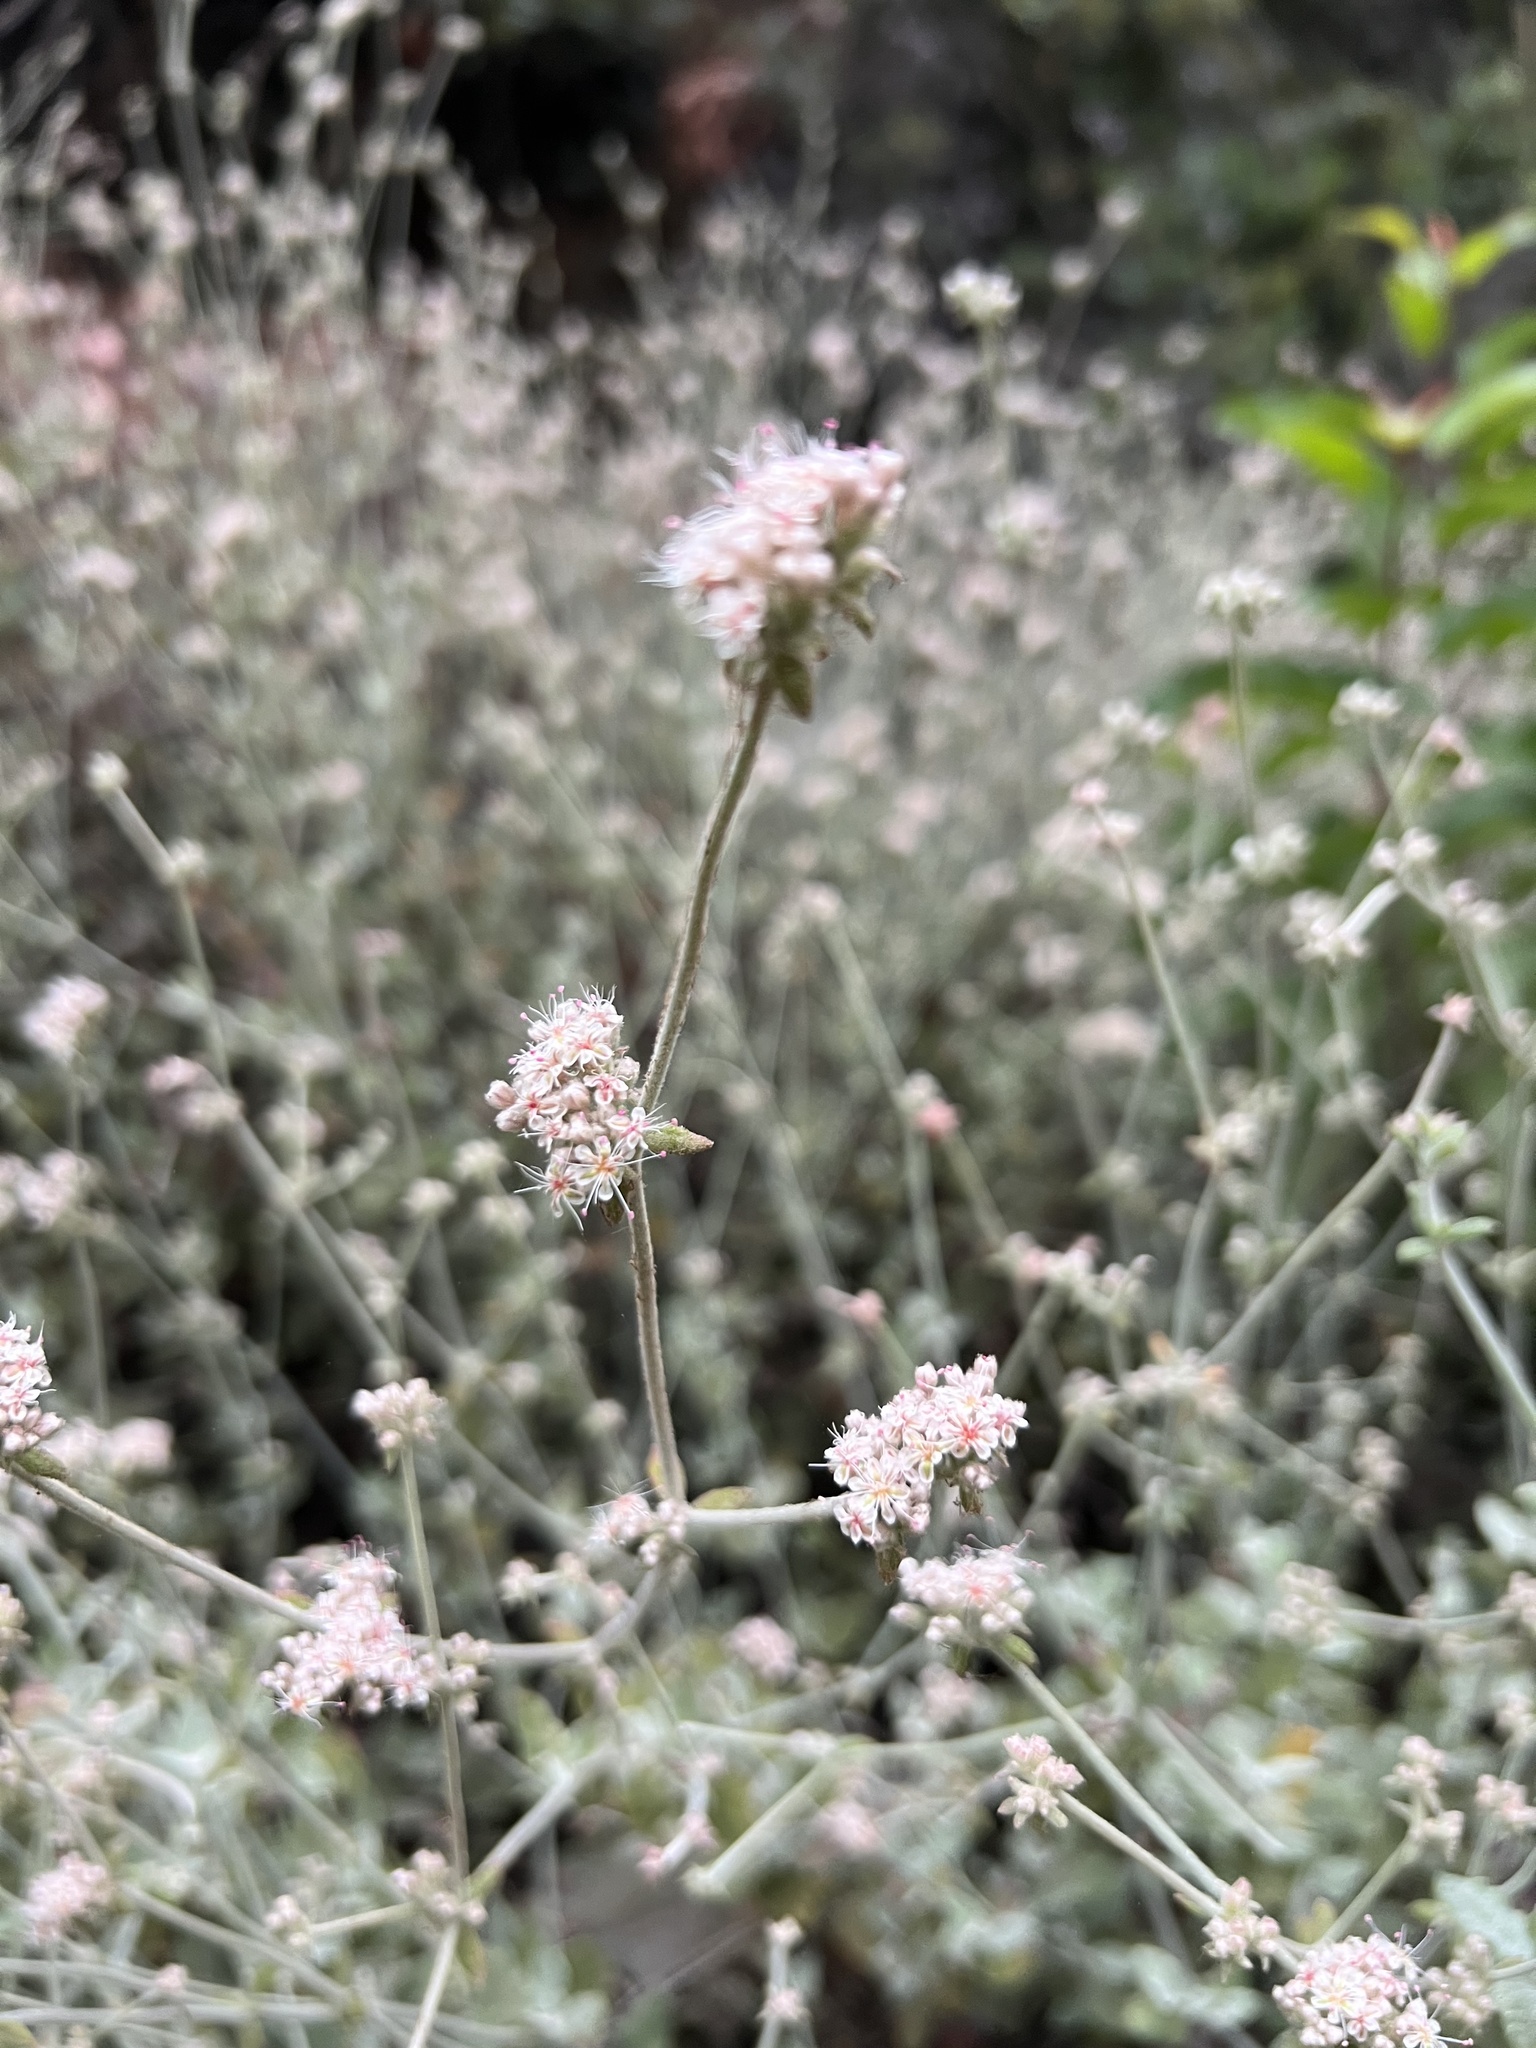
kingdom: Plantae
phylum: Tracheophyta
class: Magnoliopsida
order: Caryophyllales
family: Polygonaceae
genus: Eriogonum
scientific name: Eriogonum cinereum
